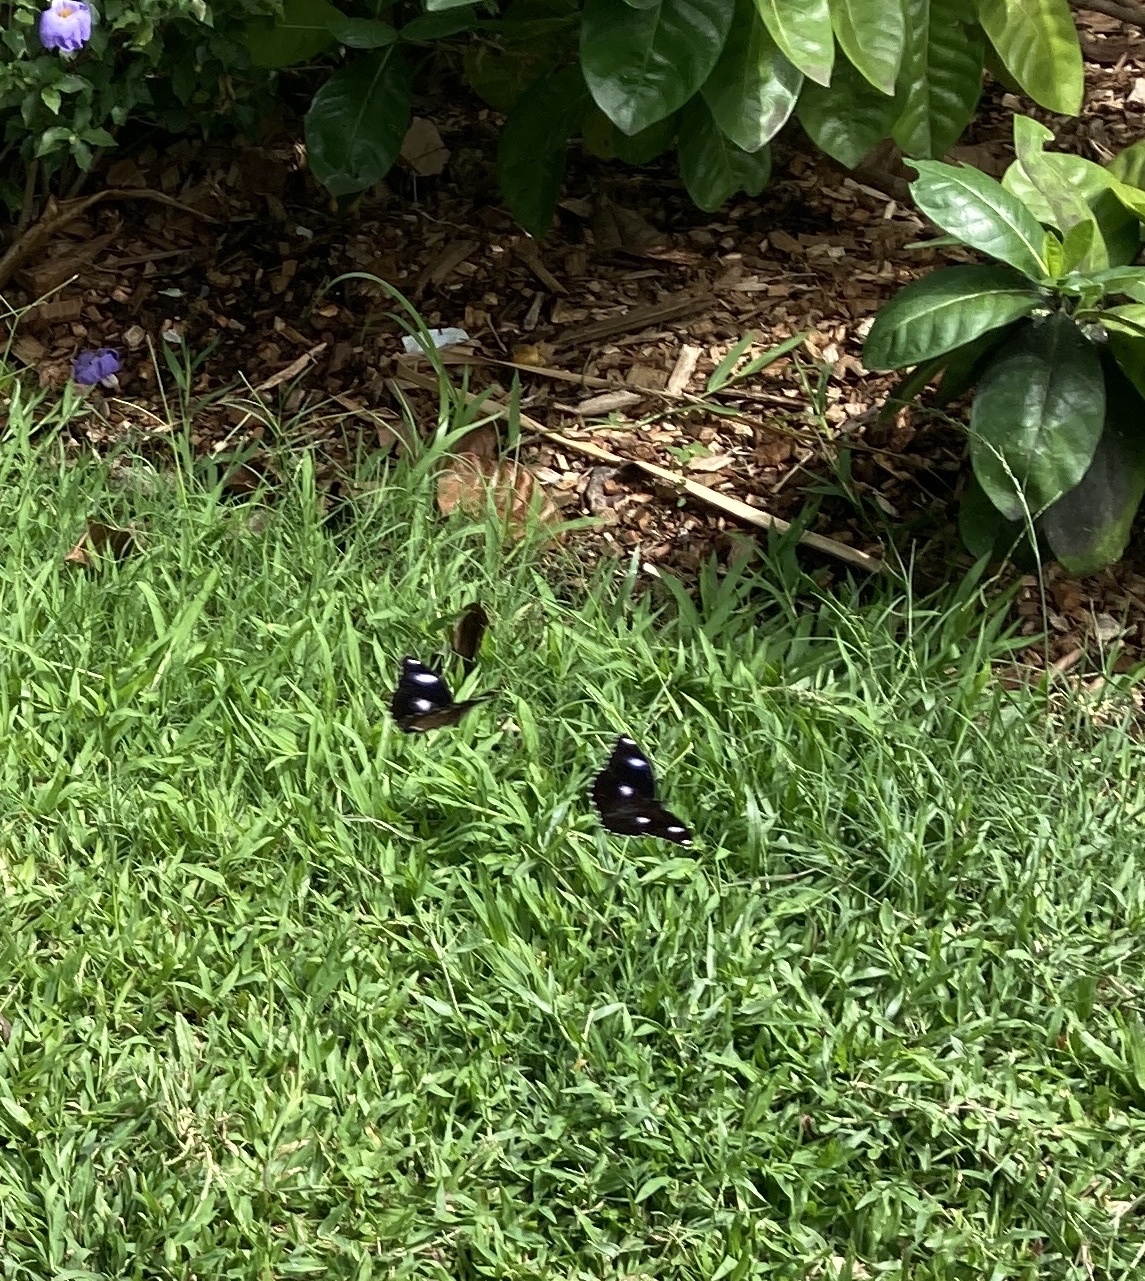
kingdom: Animalia
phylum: Arthropoda
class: Insecta
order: Lepidoptera
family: Nymphalidae
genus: Hypolimnas
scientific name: Hypolimnas bolina
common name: Great eggfly
